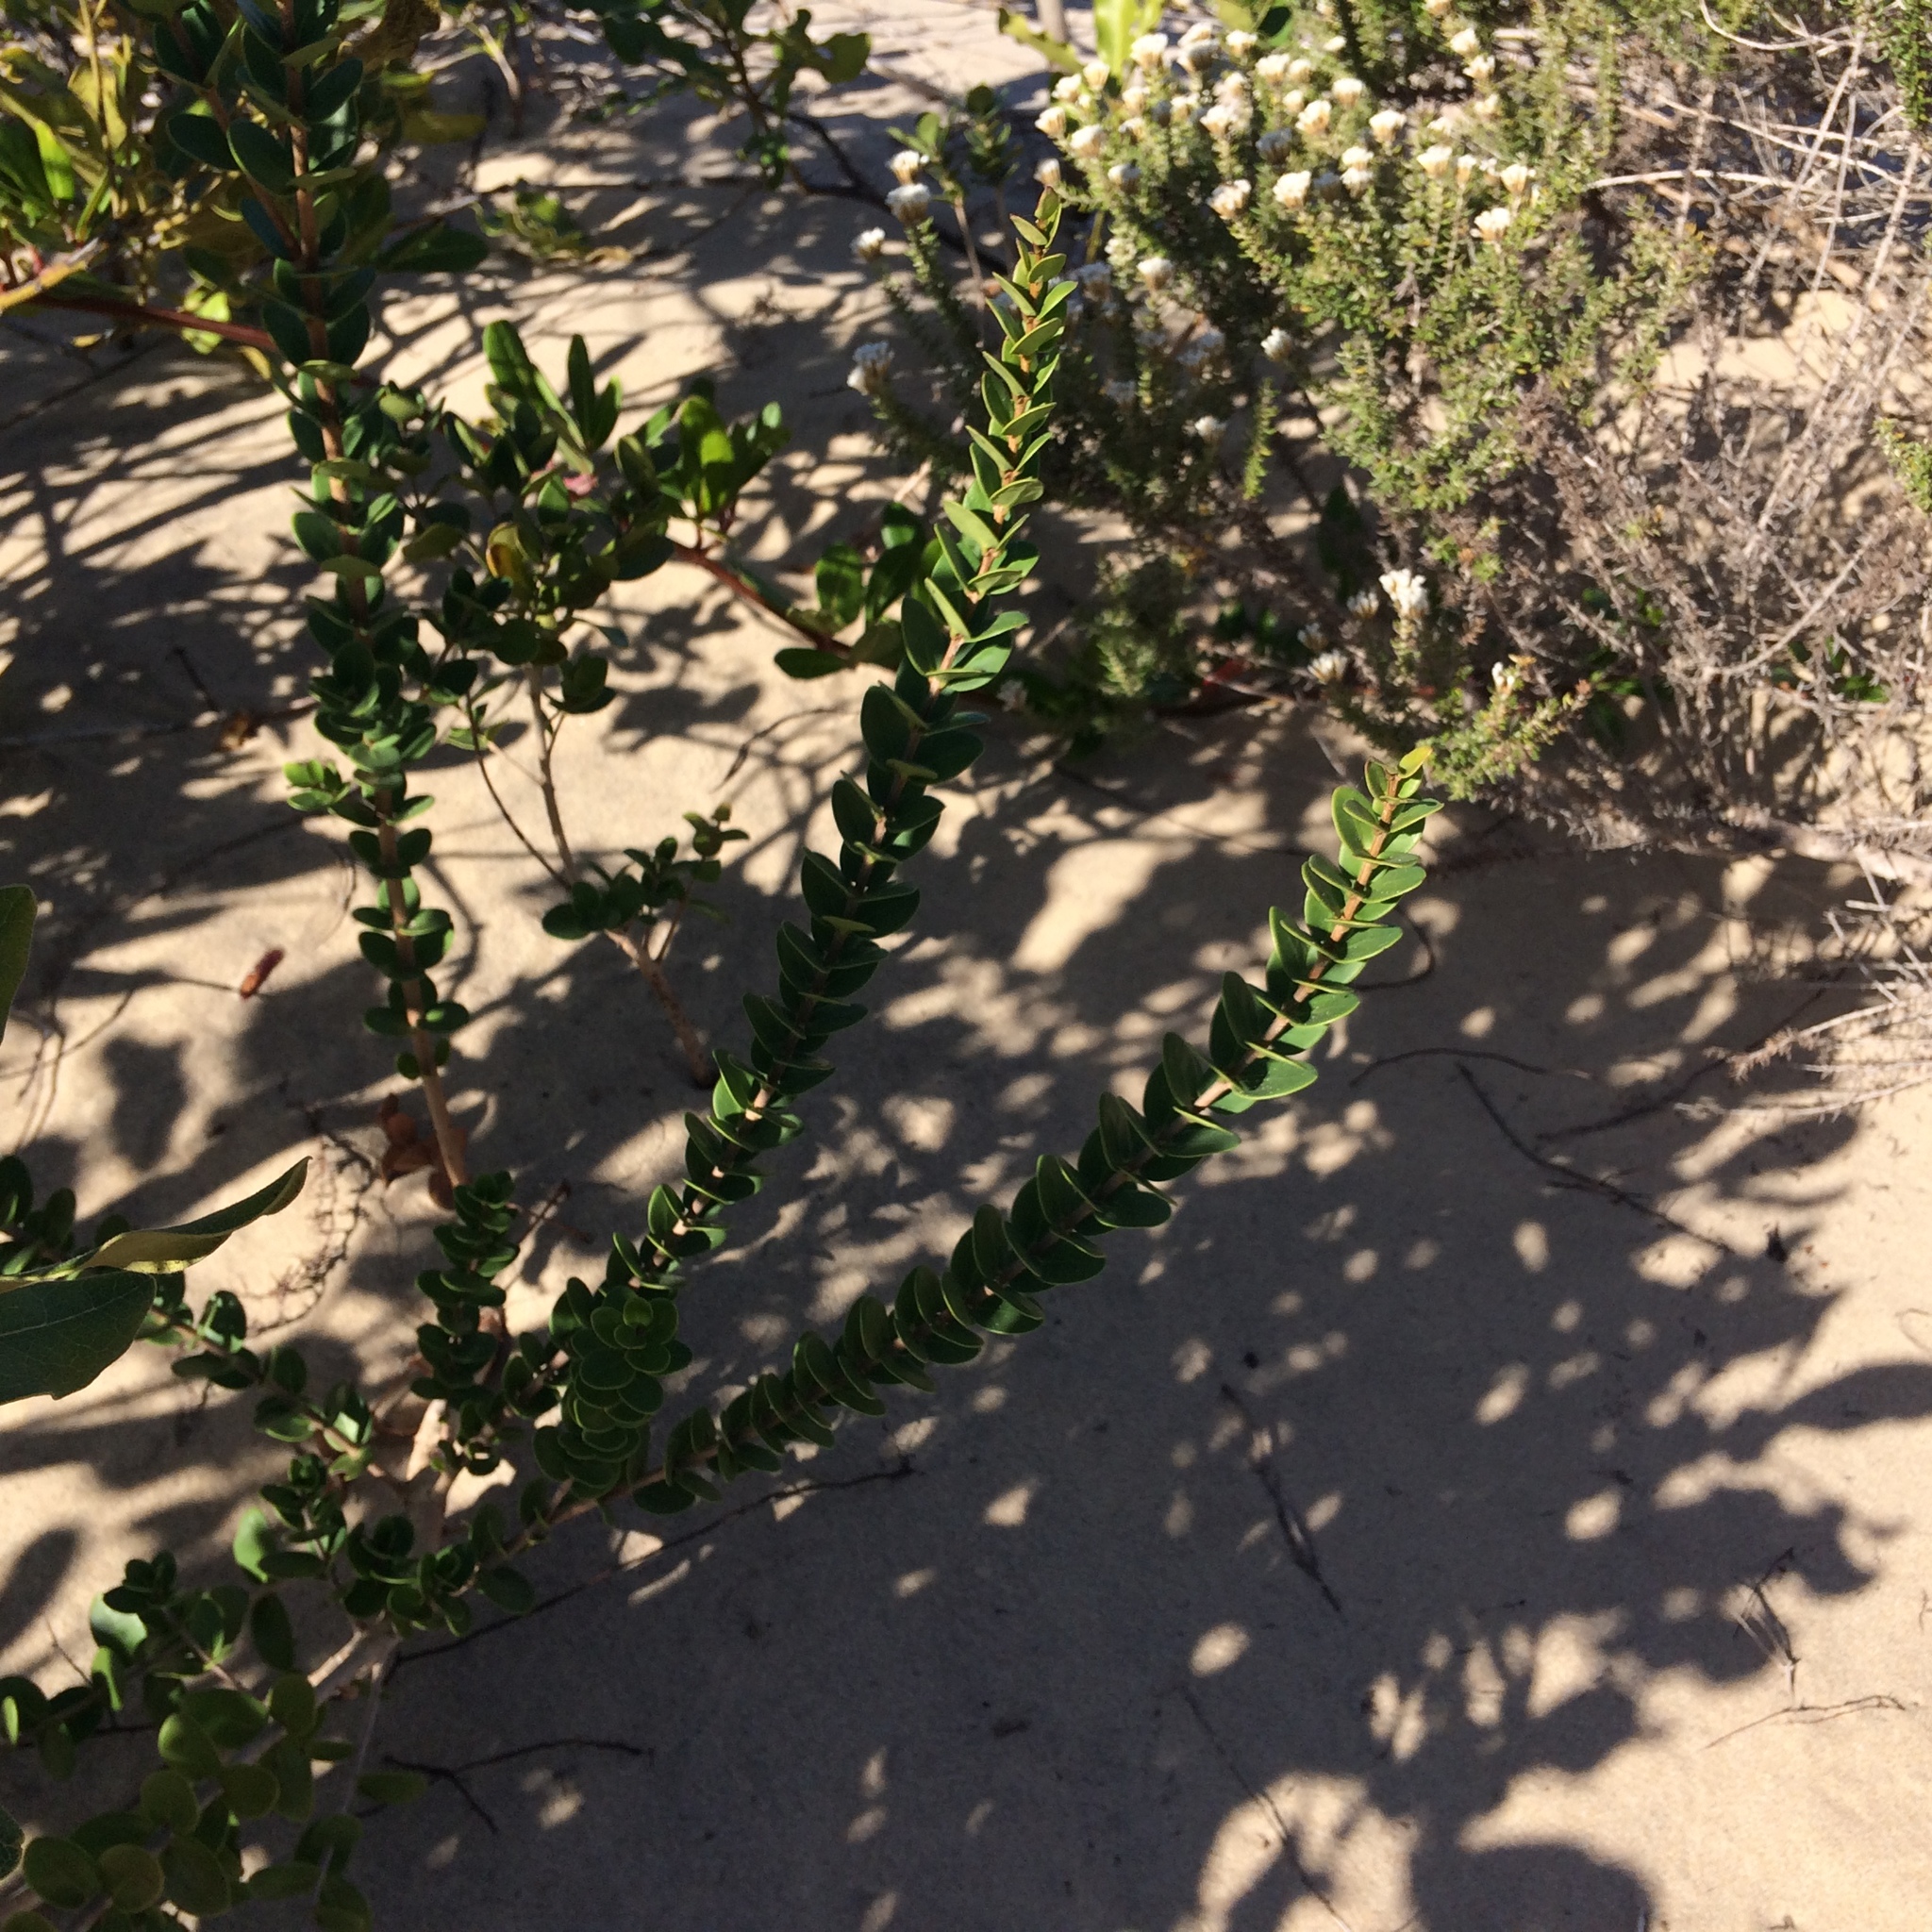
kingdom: Plantae
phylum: Tracheophyta
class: Magnoliopsida
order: Myrtales
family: Myrtaceae
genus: Eugenia
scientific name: Eugenia capensis
